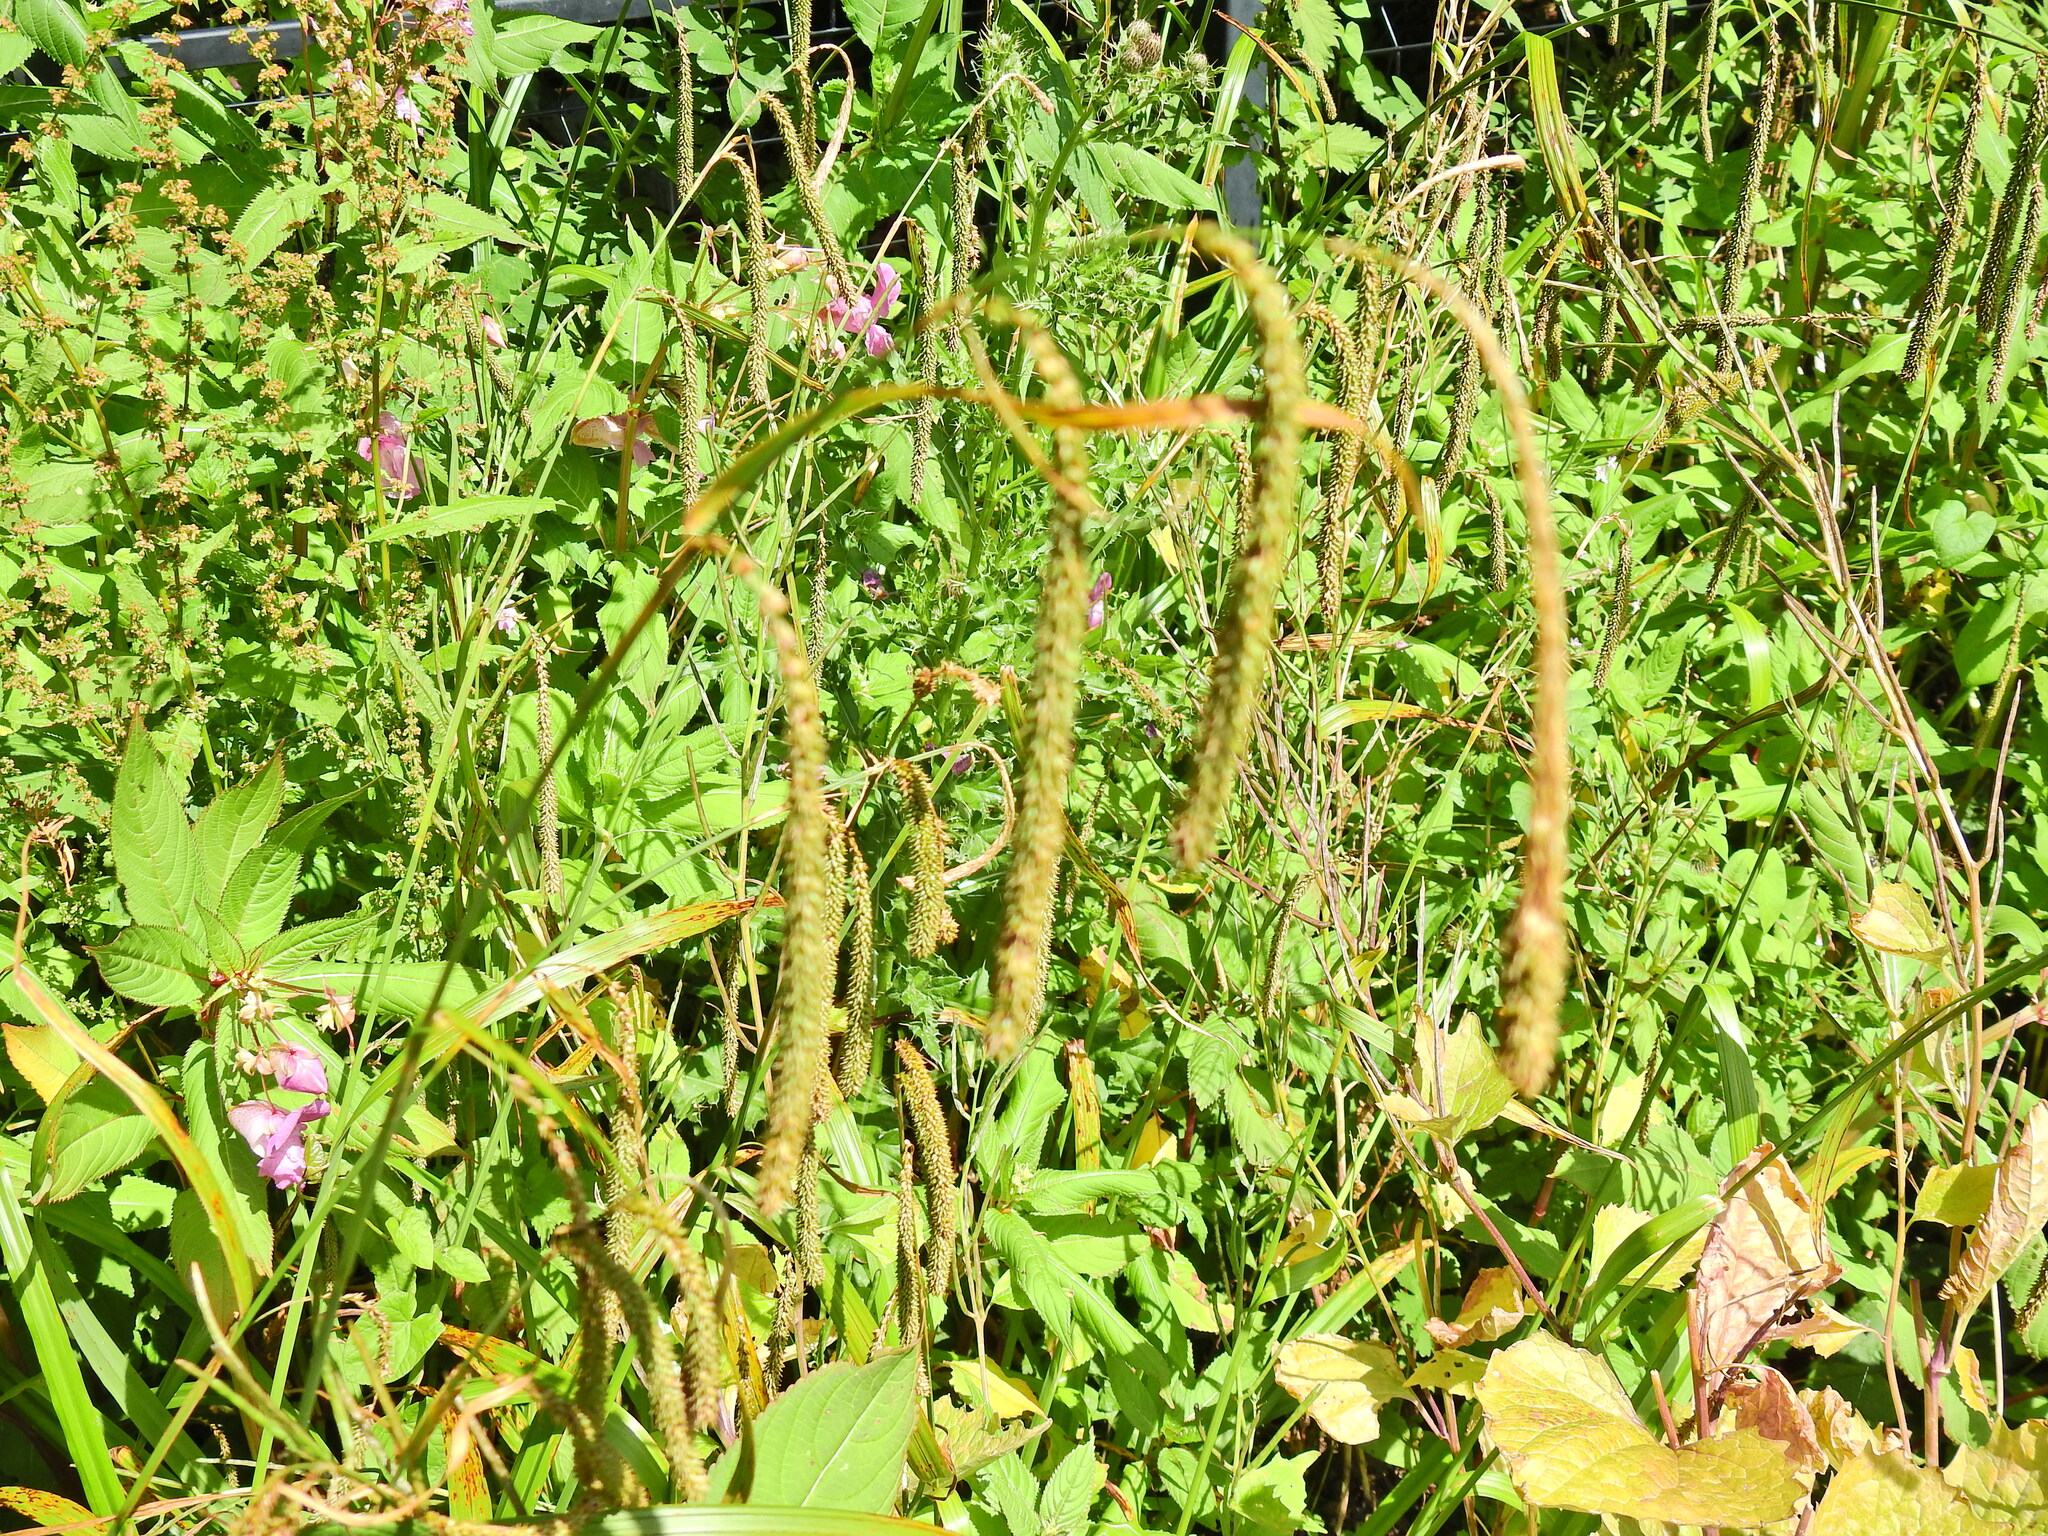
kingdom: Plantae
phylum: Tracheophyta
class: Liliopsida
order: Poales
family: Cyperaceae
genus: Carex
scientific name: Carex pendula
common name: Pendulous sedge
